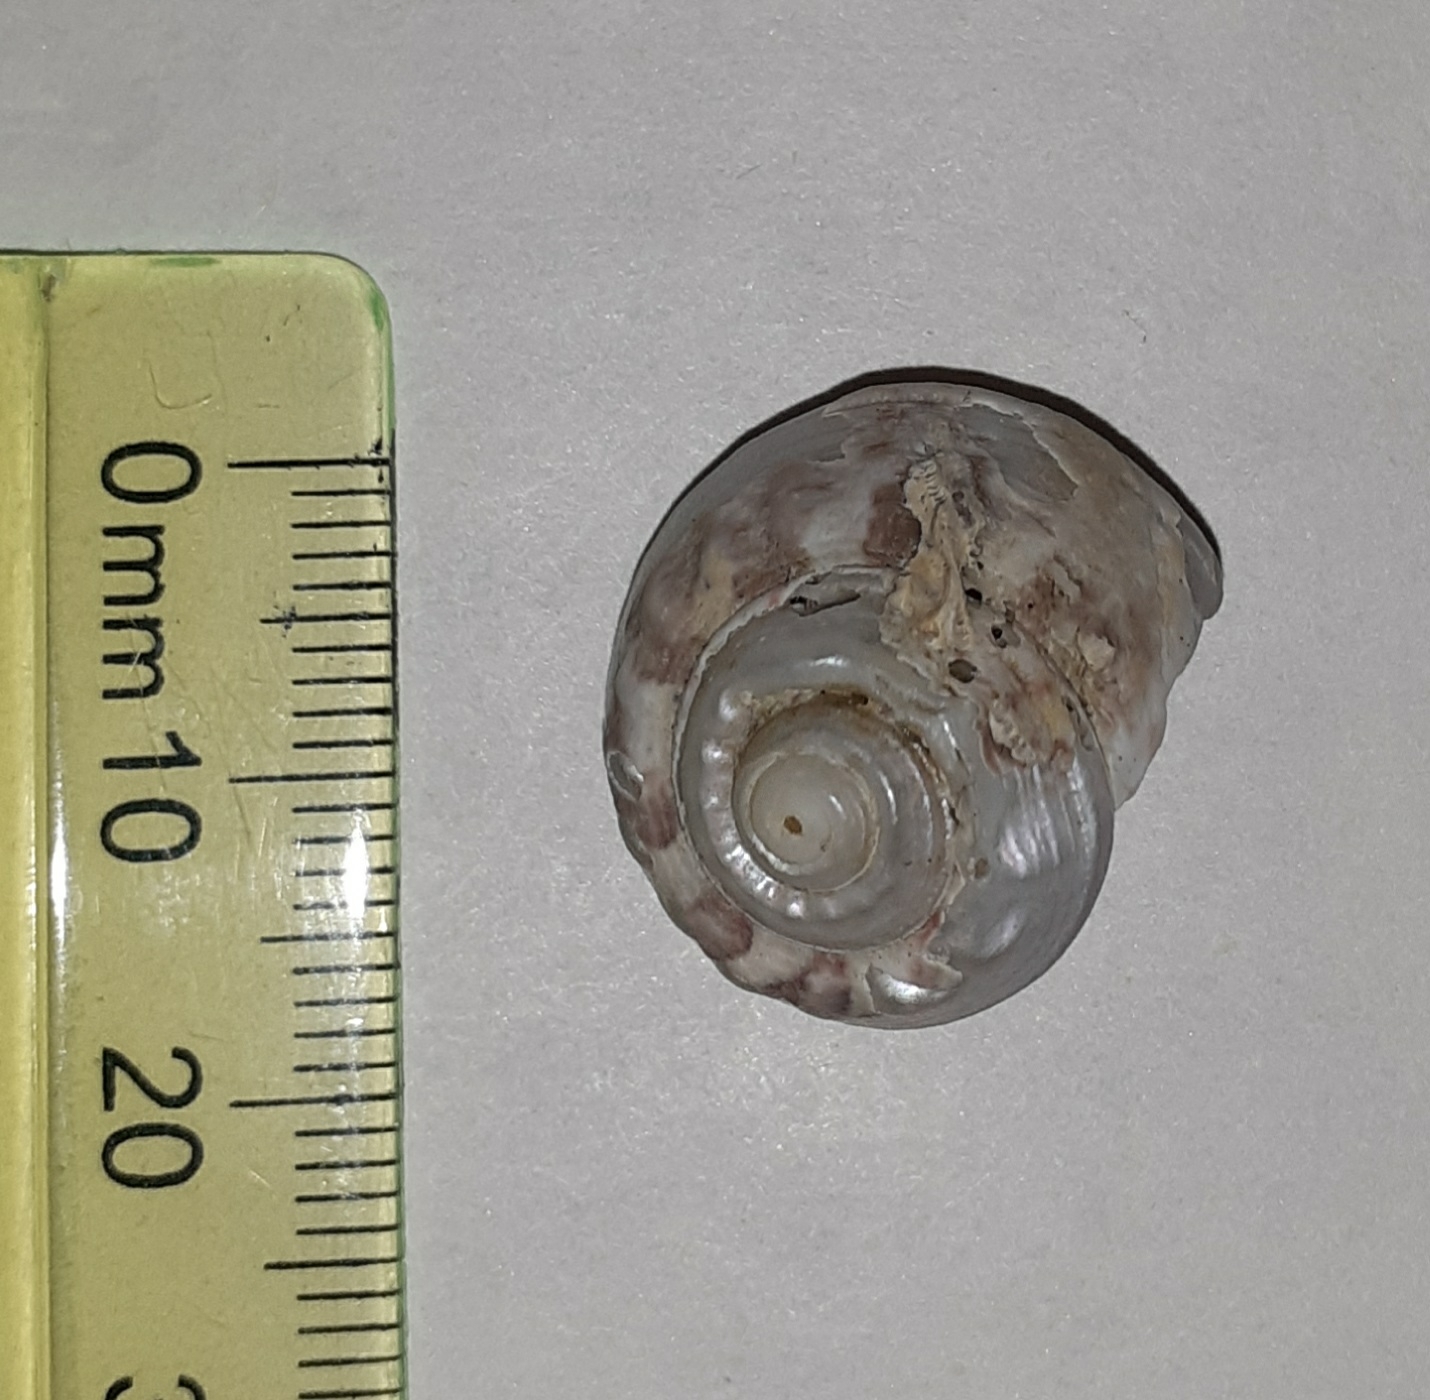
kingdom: Animalia
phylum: Mollusca
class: Gastropoda
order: Trochida
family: Trochidae
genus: Gibbula
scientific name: Gibbula magus
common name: Turban top shell
